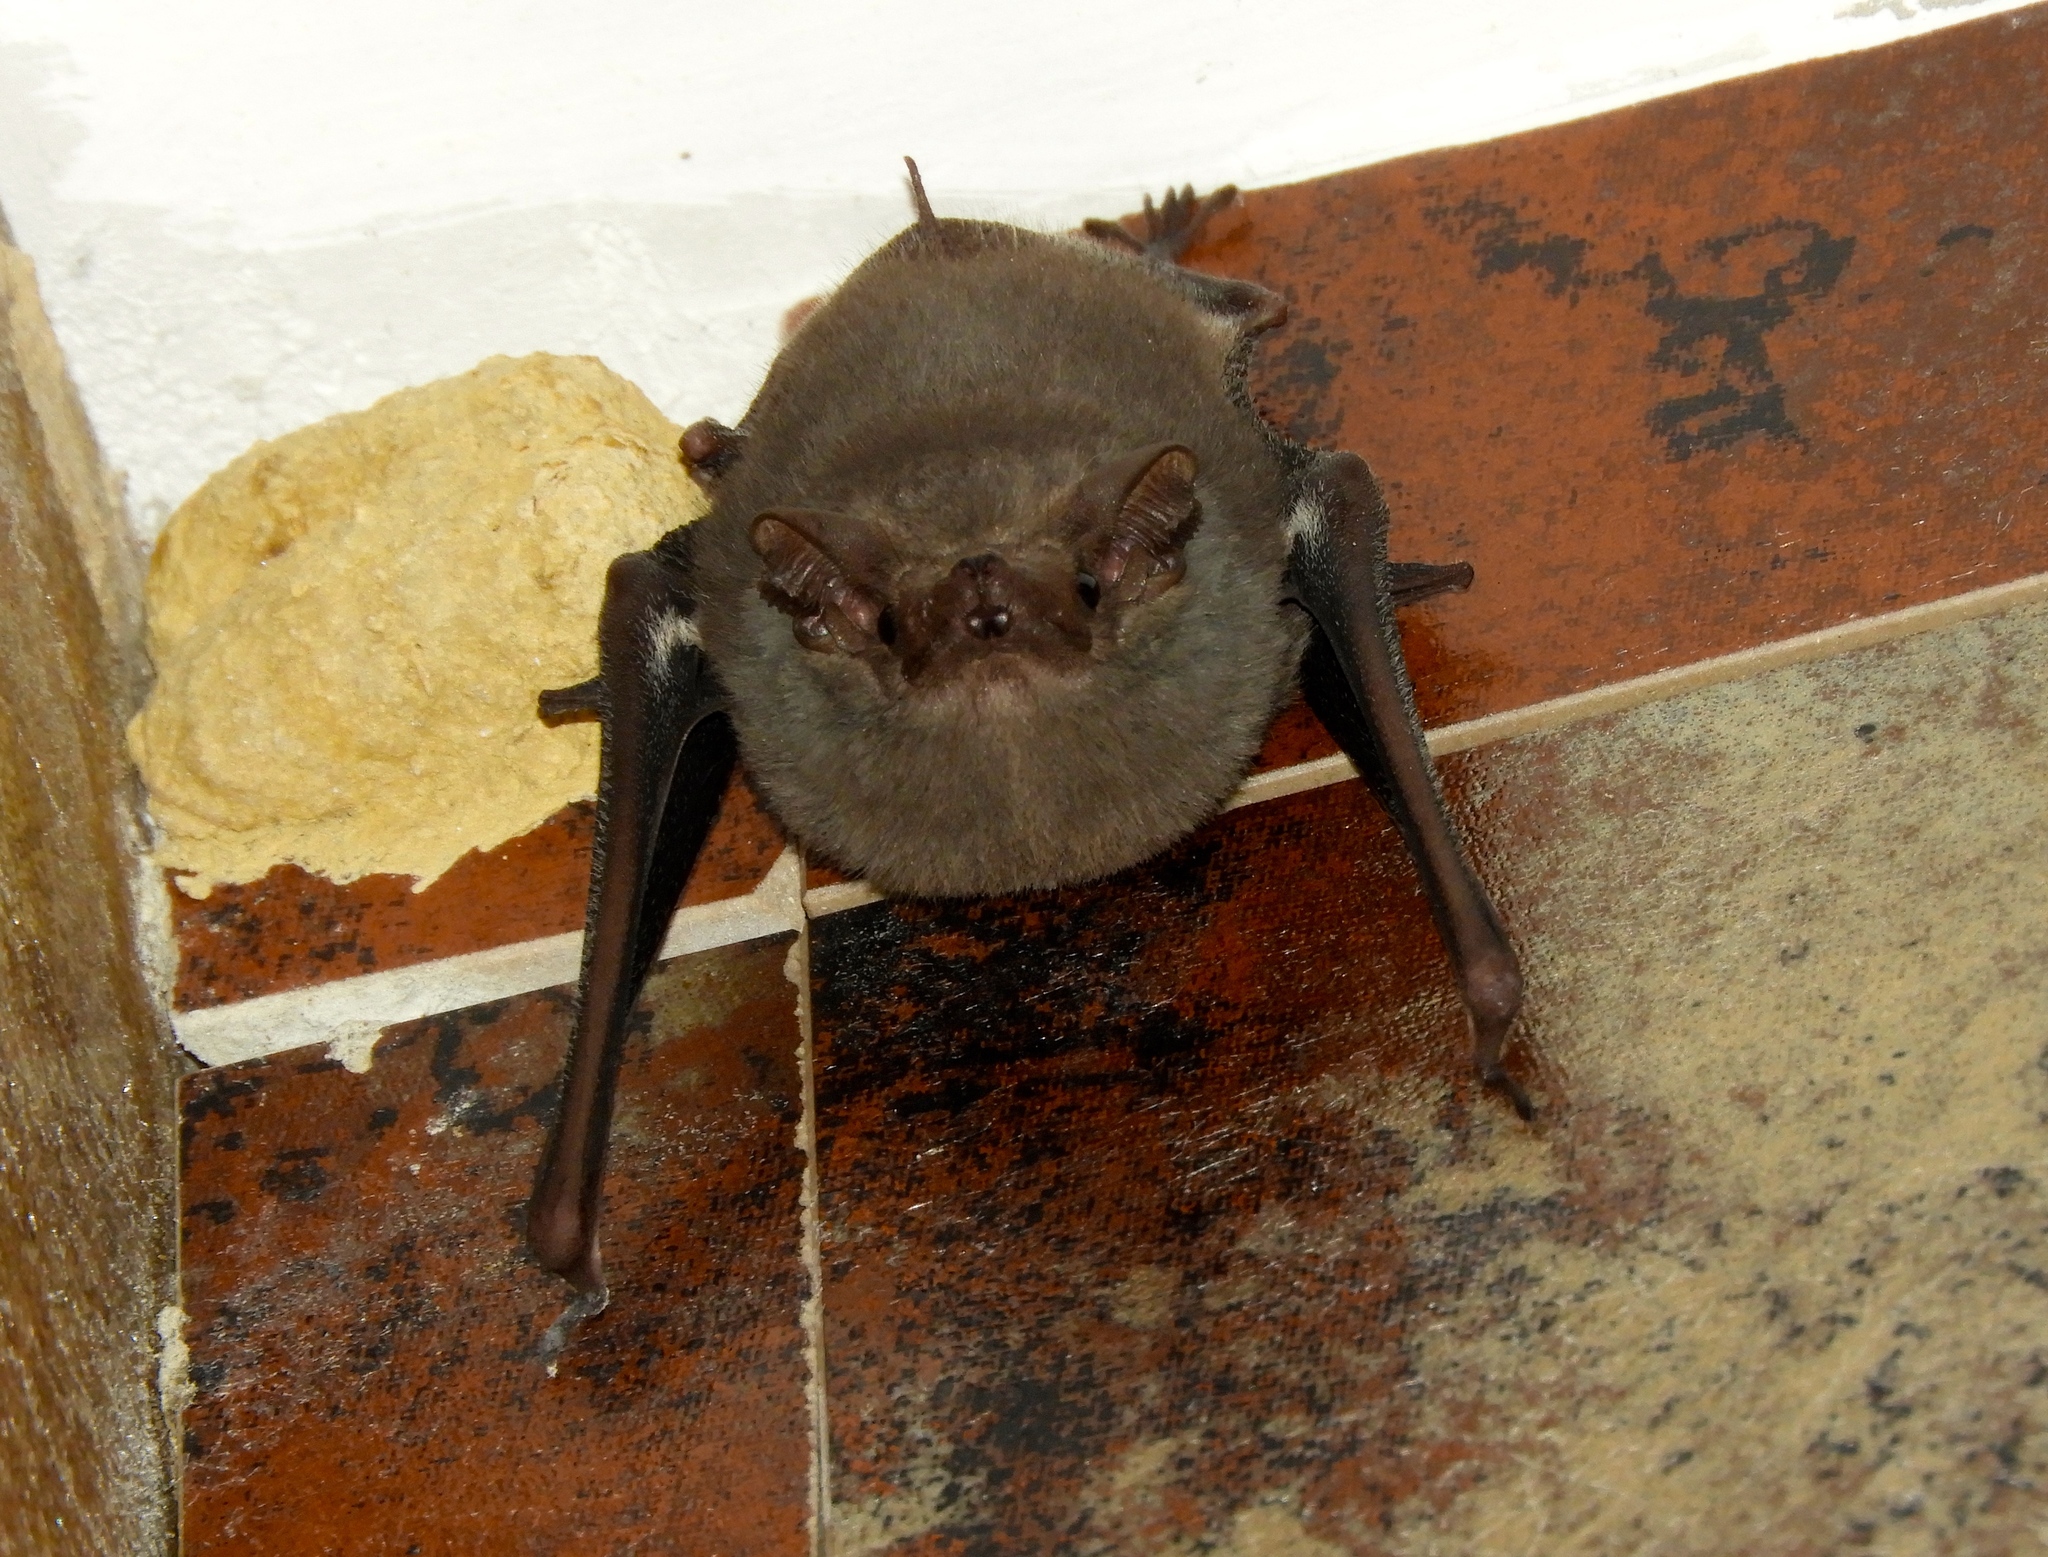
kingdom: Animalia
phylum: Chordata
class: Mammalia
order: Chiroptera
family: Emballonuridae
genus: Balantiopteryx
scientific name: Balantiopteryx plicata
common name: Gray sac-winged bat
